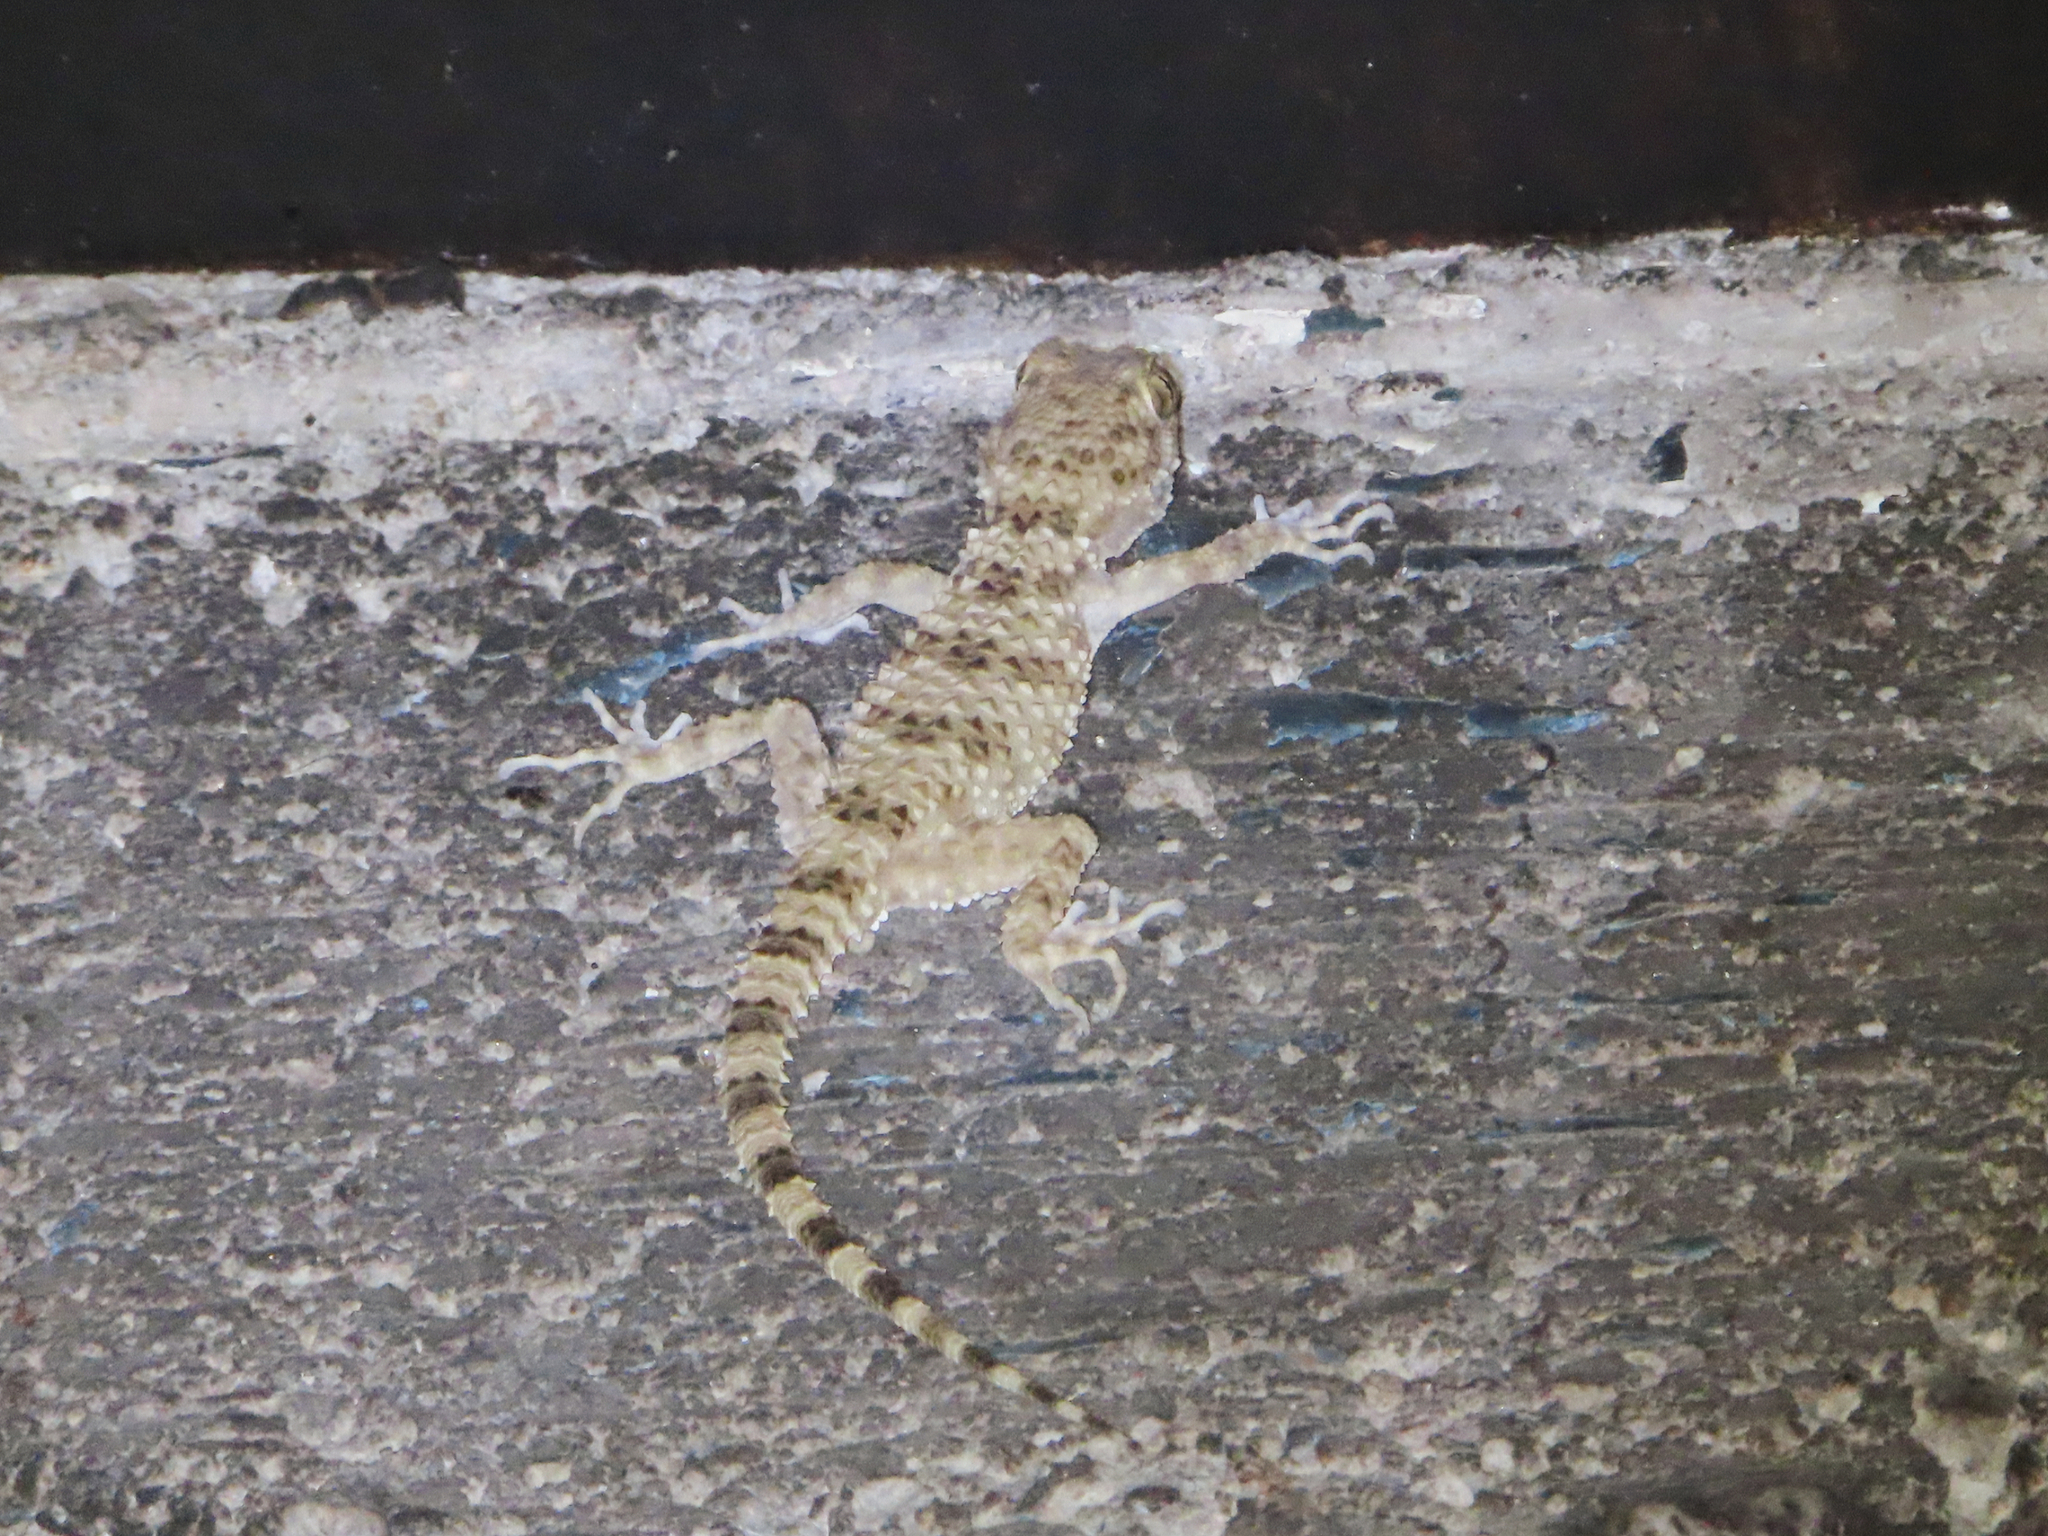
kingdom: Animalia
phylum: Chordata
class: Squamata
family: Gekkonidae
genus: Tenuidactylus
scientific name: Tenuidactylus caspius
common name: Caspian bent-toed gecko
